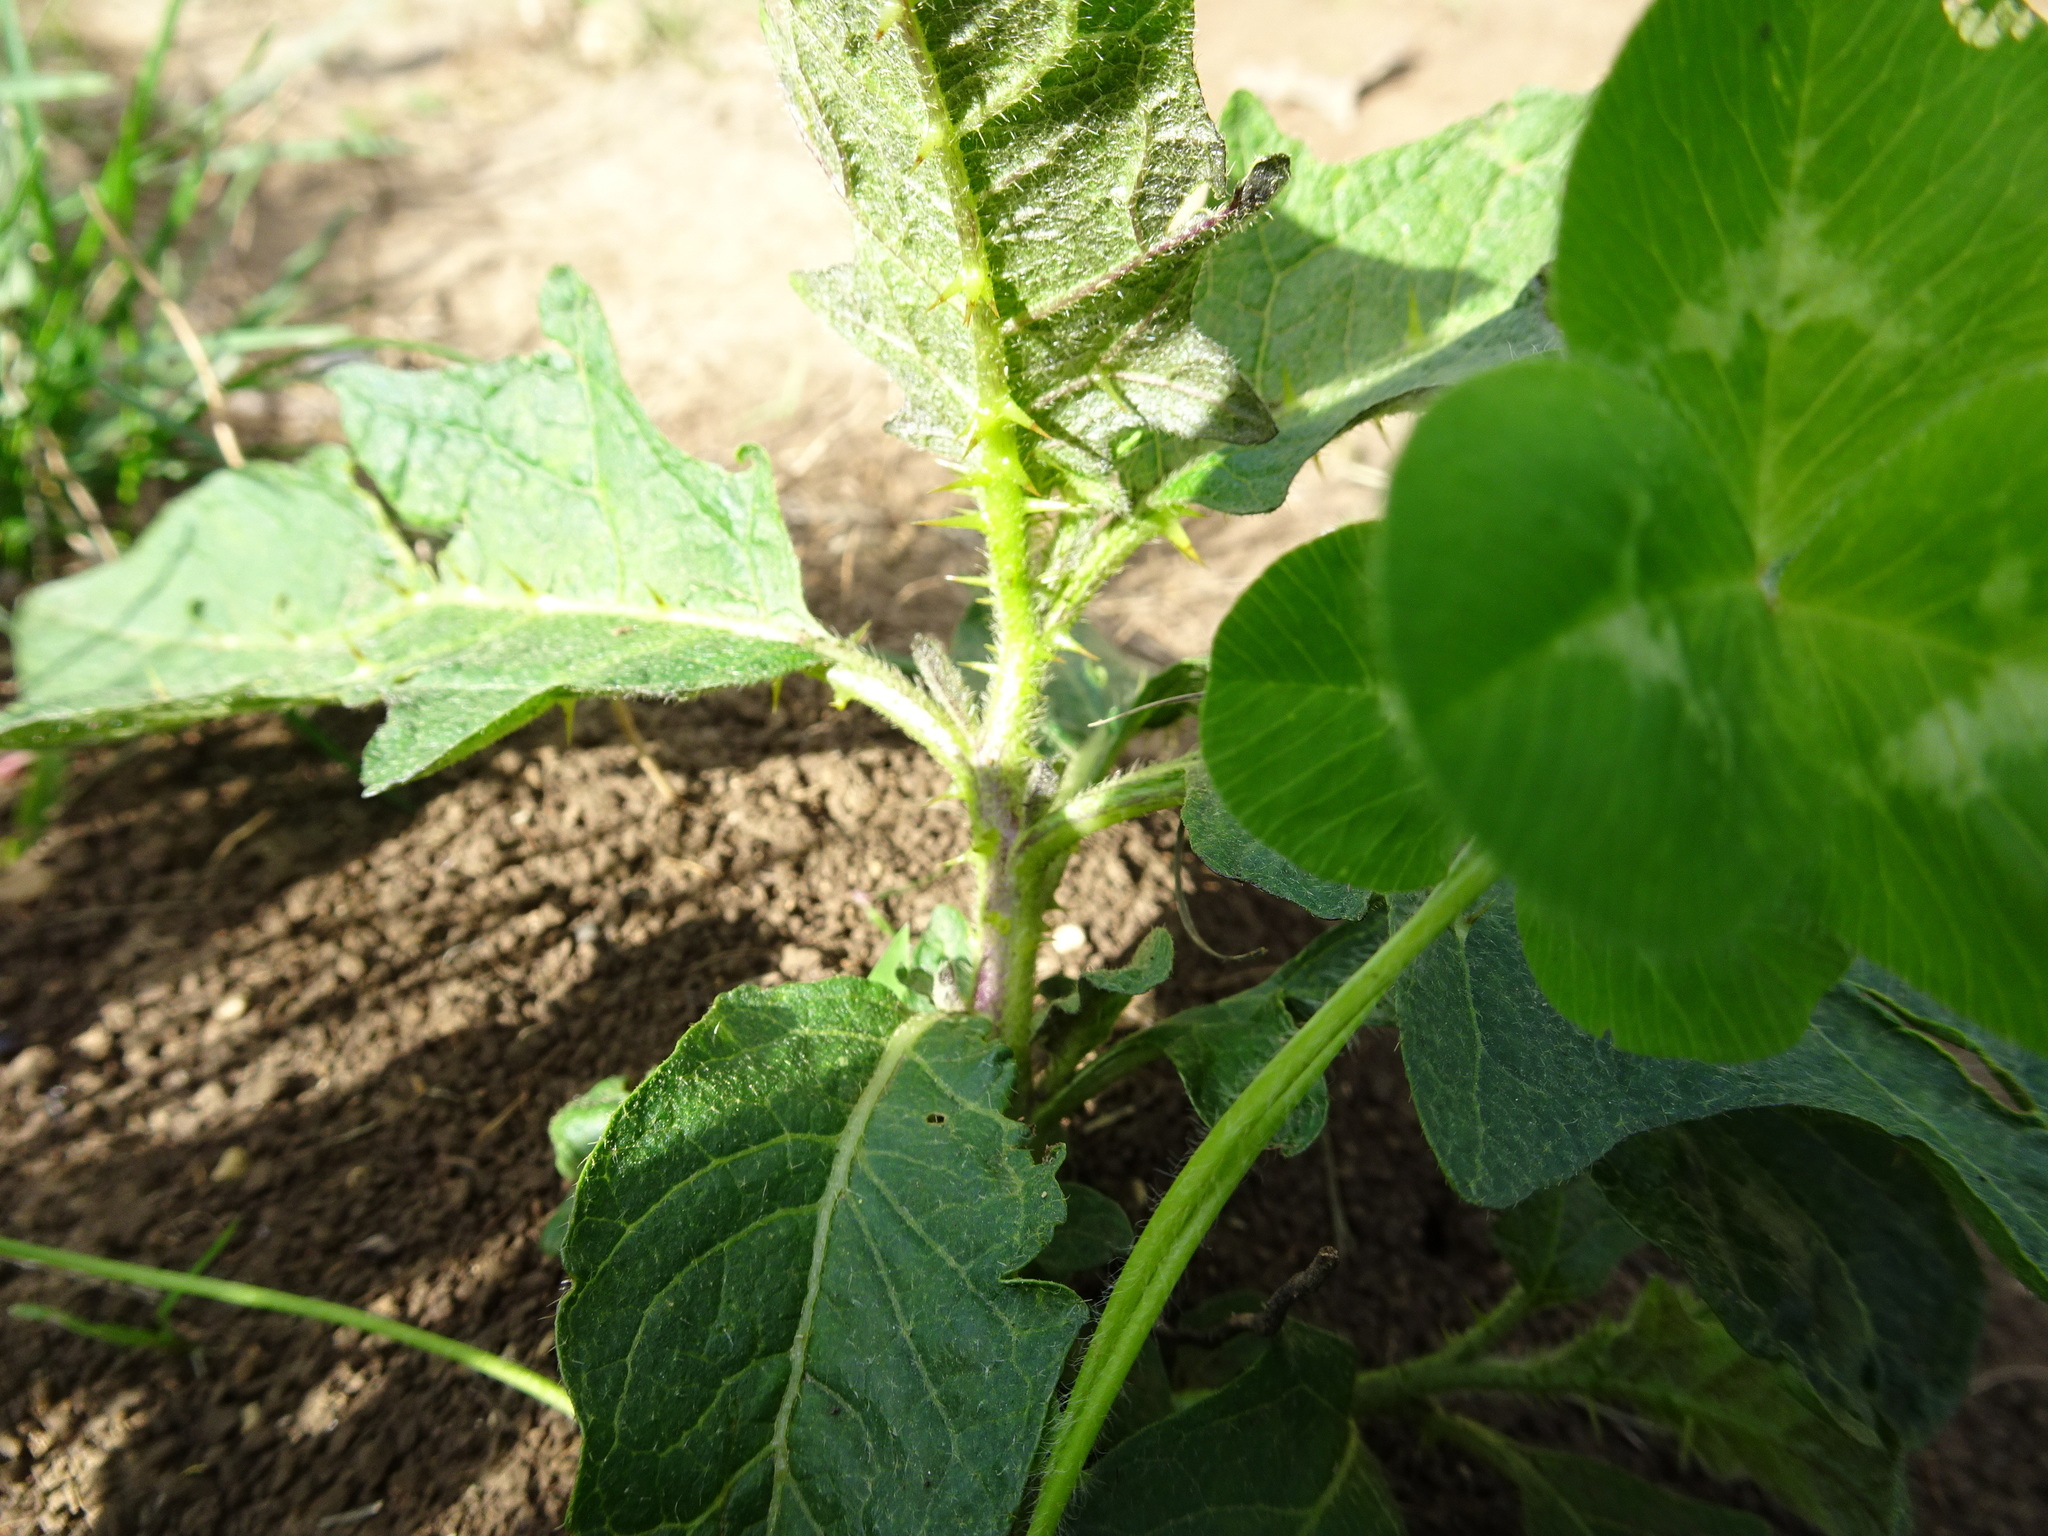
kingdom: Plantae
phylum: Tracheophyta
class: Magnoliopsida
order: Solanales
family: Solanaceae
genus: Solanum
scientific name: Solanum angustifolium
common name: Buffalobur nightshade
